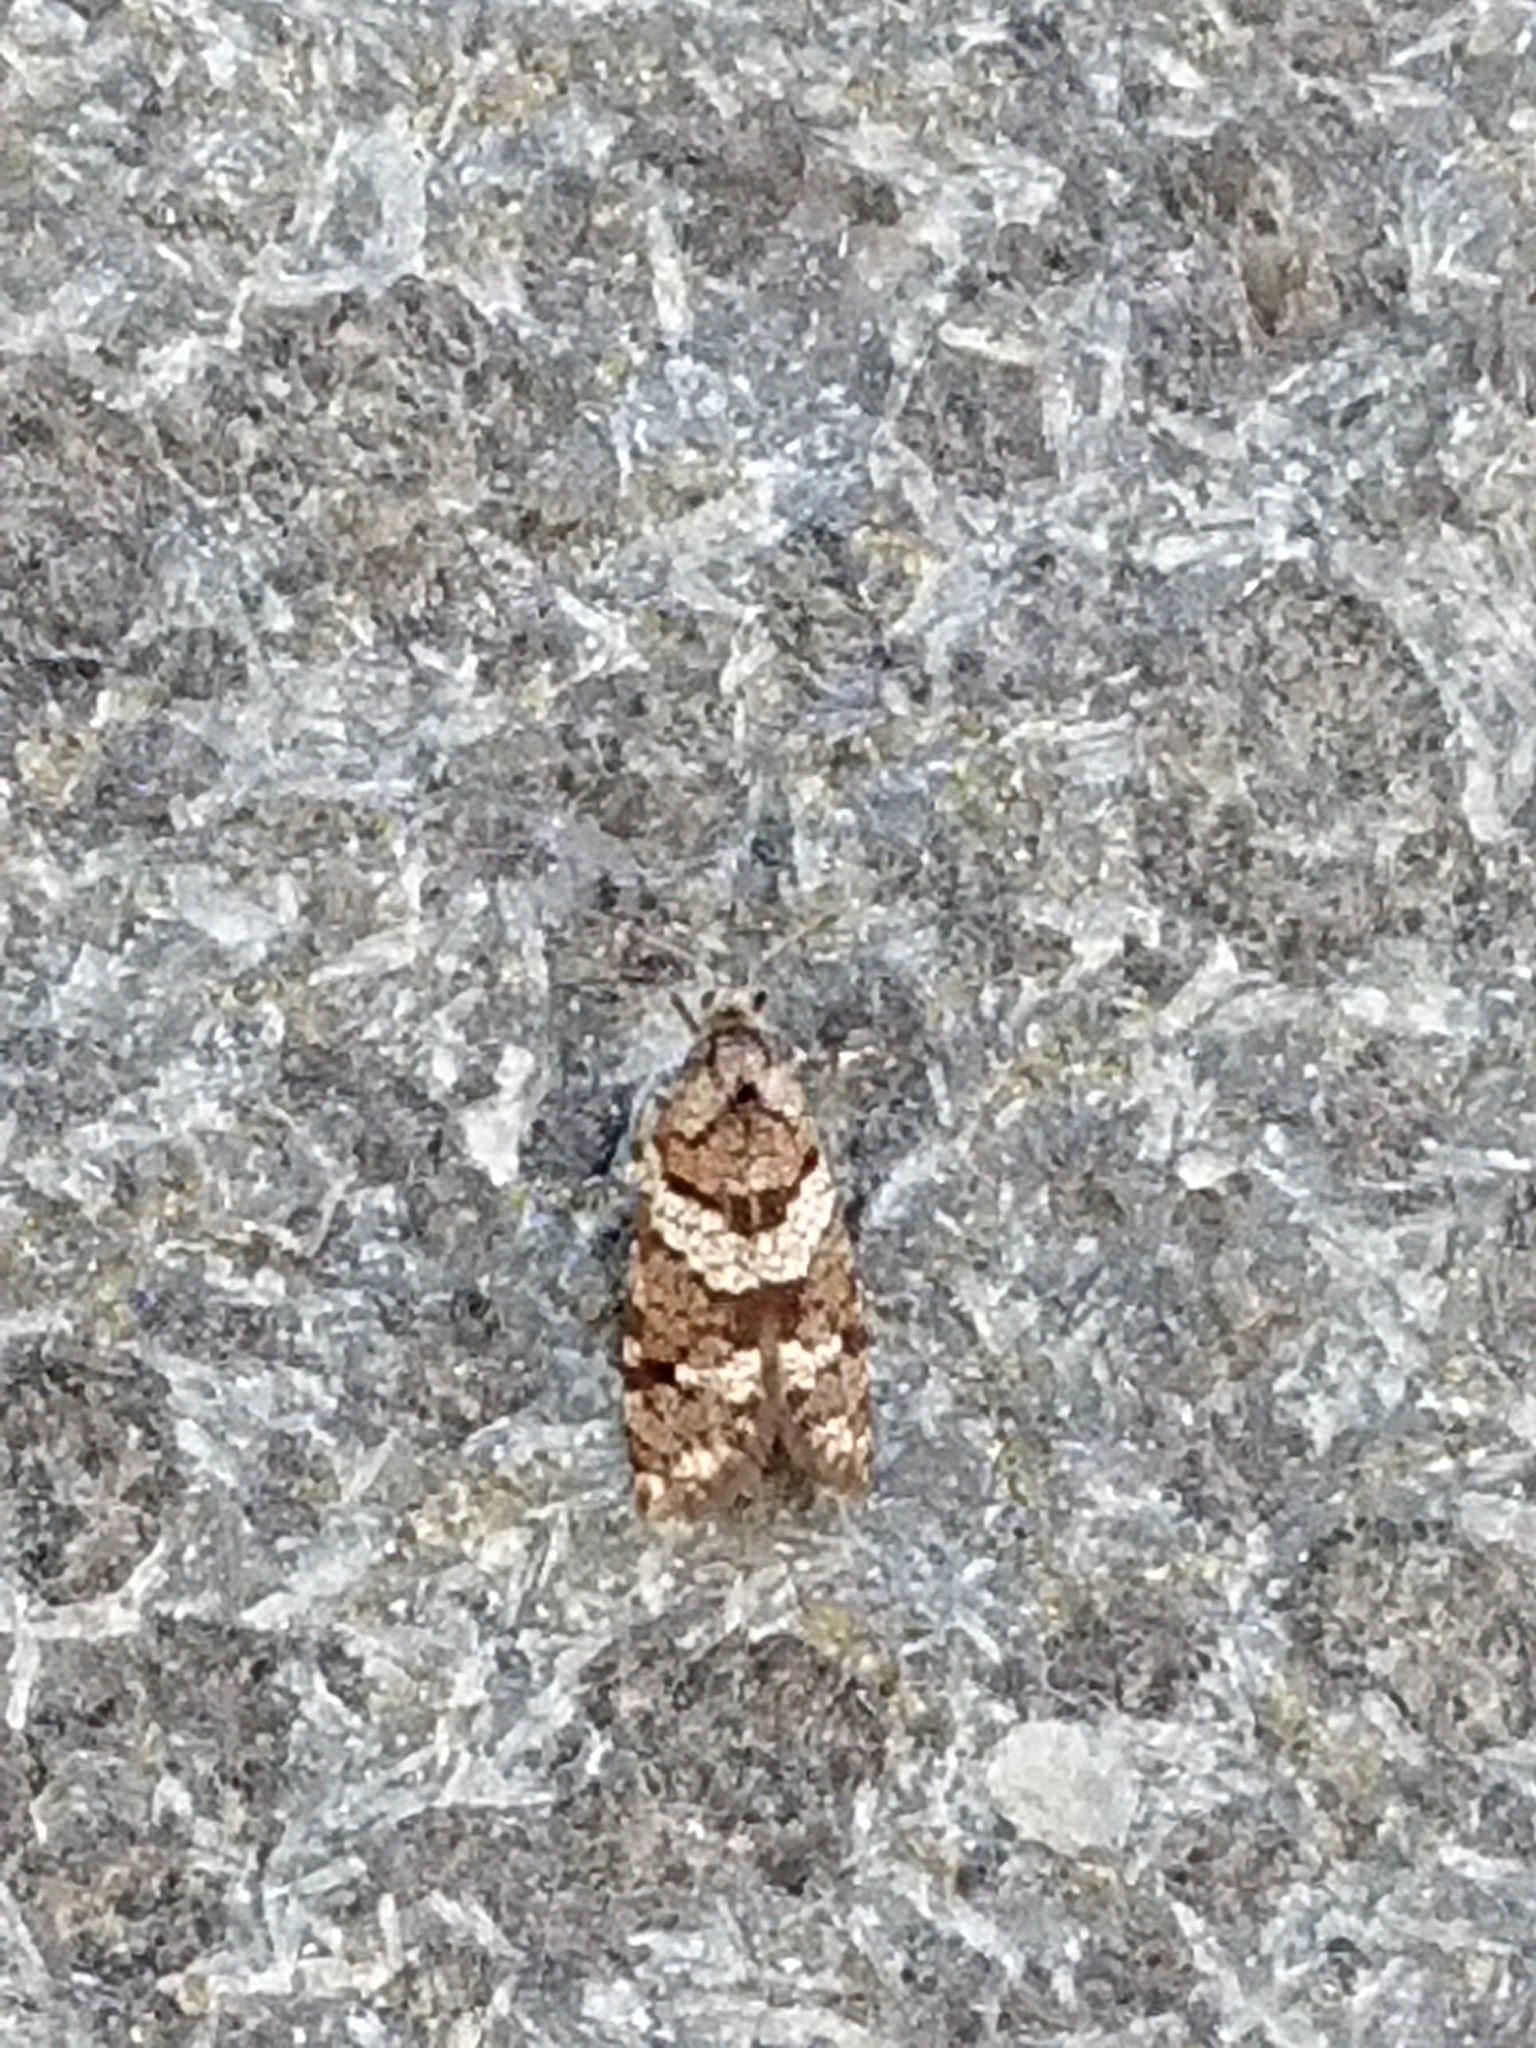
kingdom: Animalia
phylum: Arthropoda
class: Insecta
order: Lepidoptera
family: Psychidae
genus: Lepidoscia
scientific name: Lepidoscia heliochares
